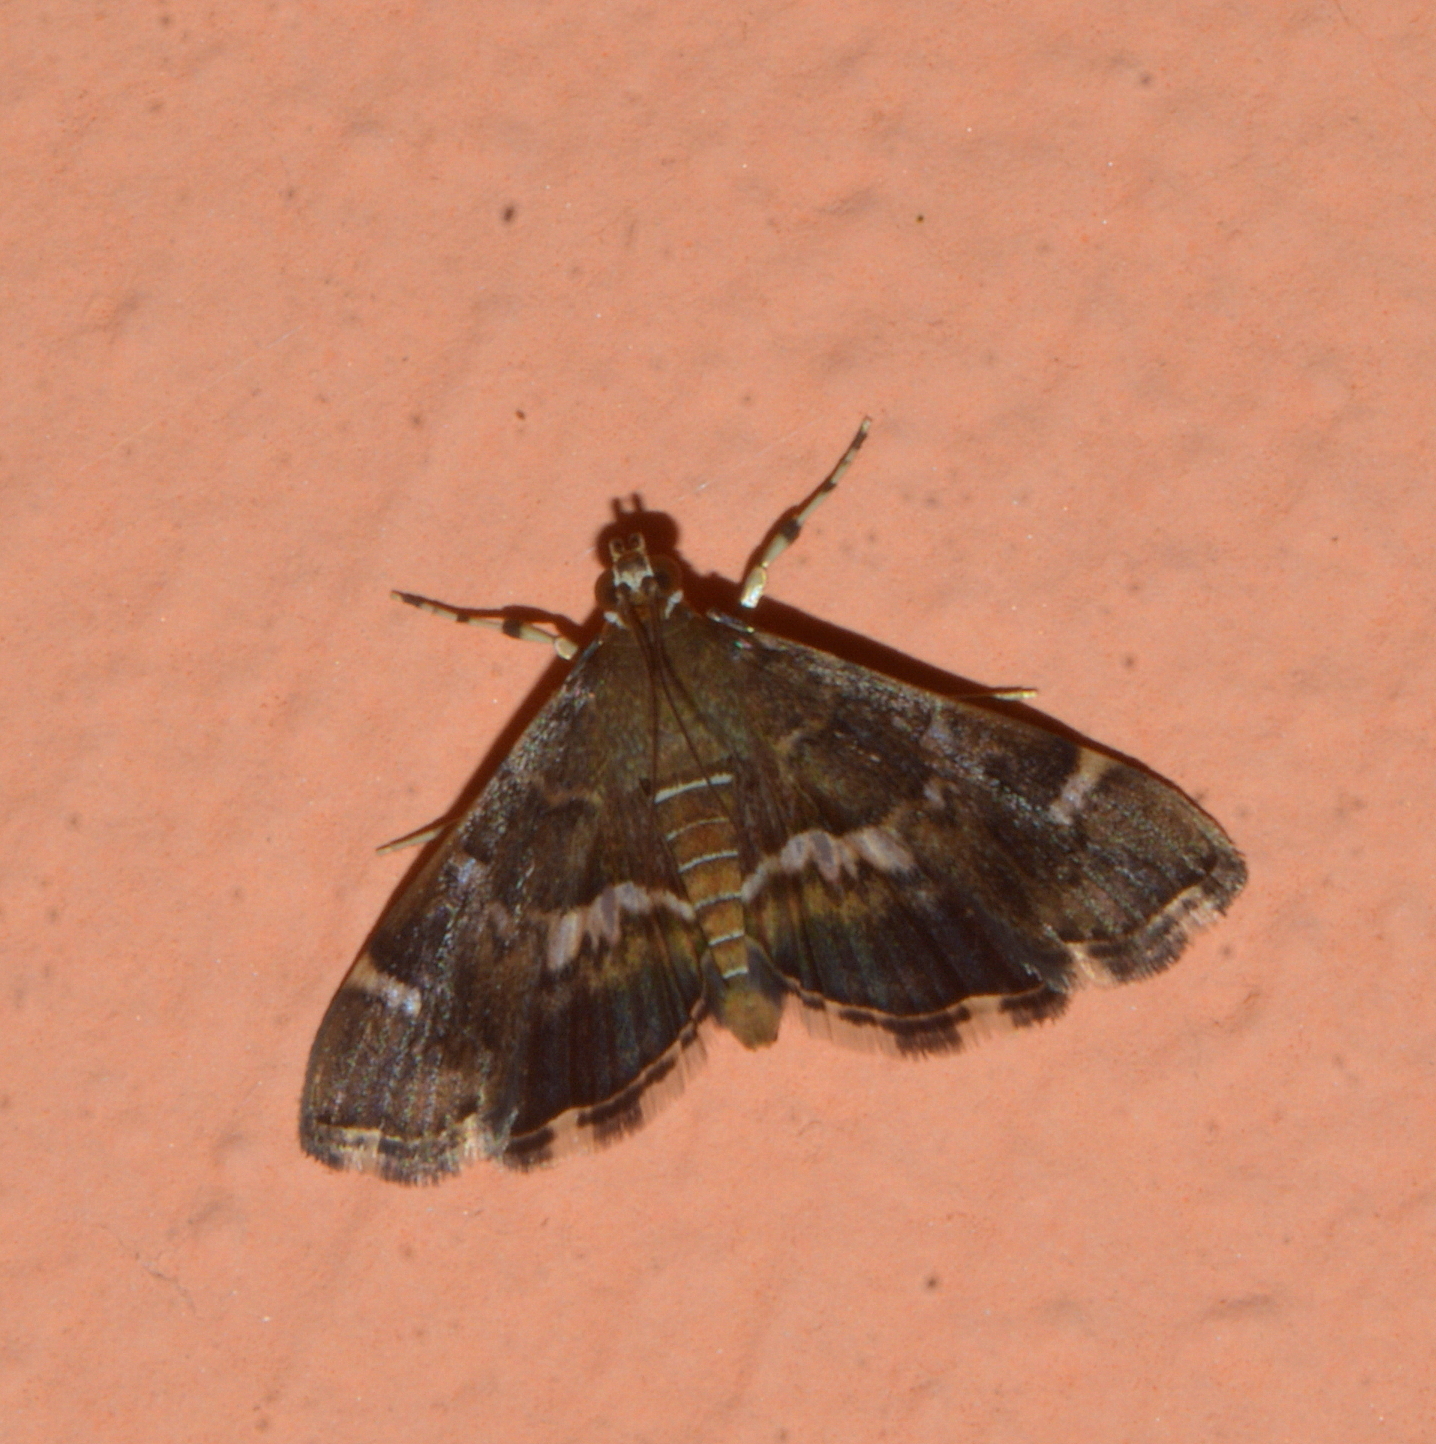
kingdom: Animalia
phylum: Arthropoda
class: Insecta
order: Lepidoptera
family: Crambidae
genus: Hymenia
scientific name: Hymenia perspectalis
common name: Spotted beet webworm
